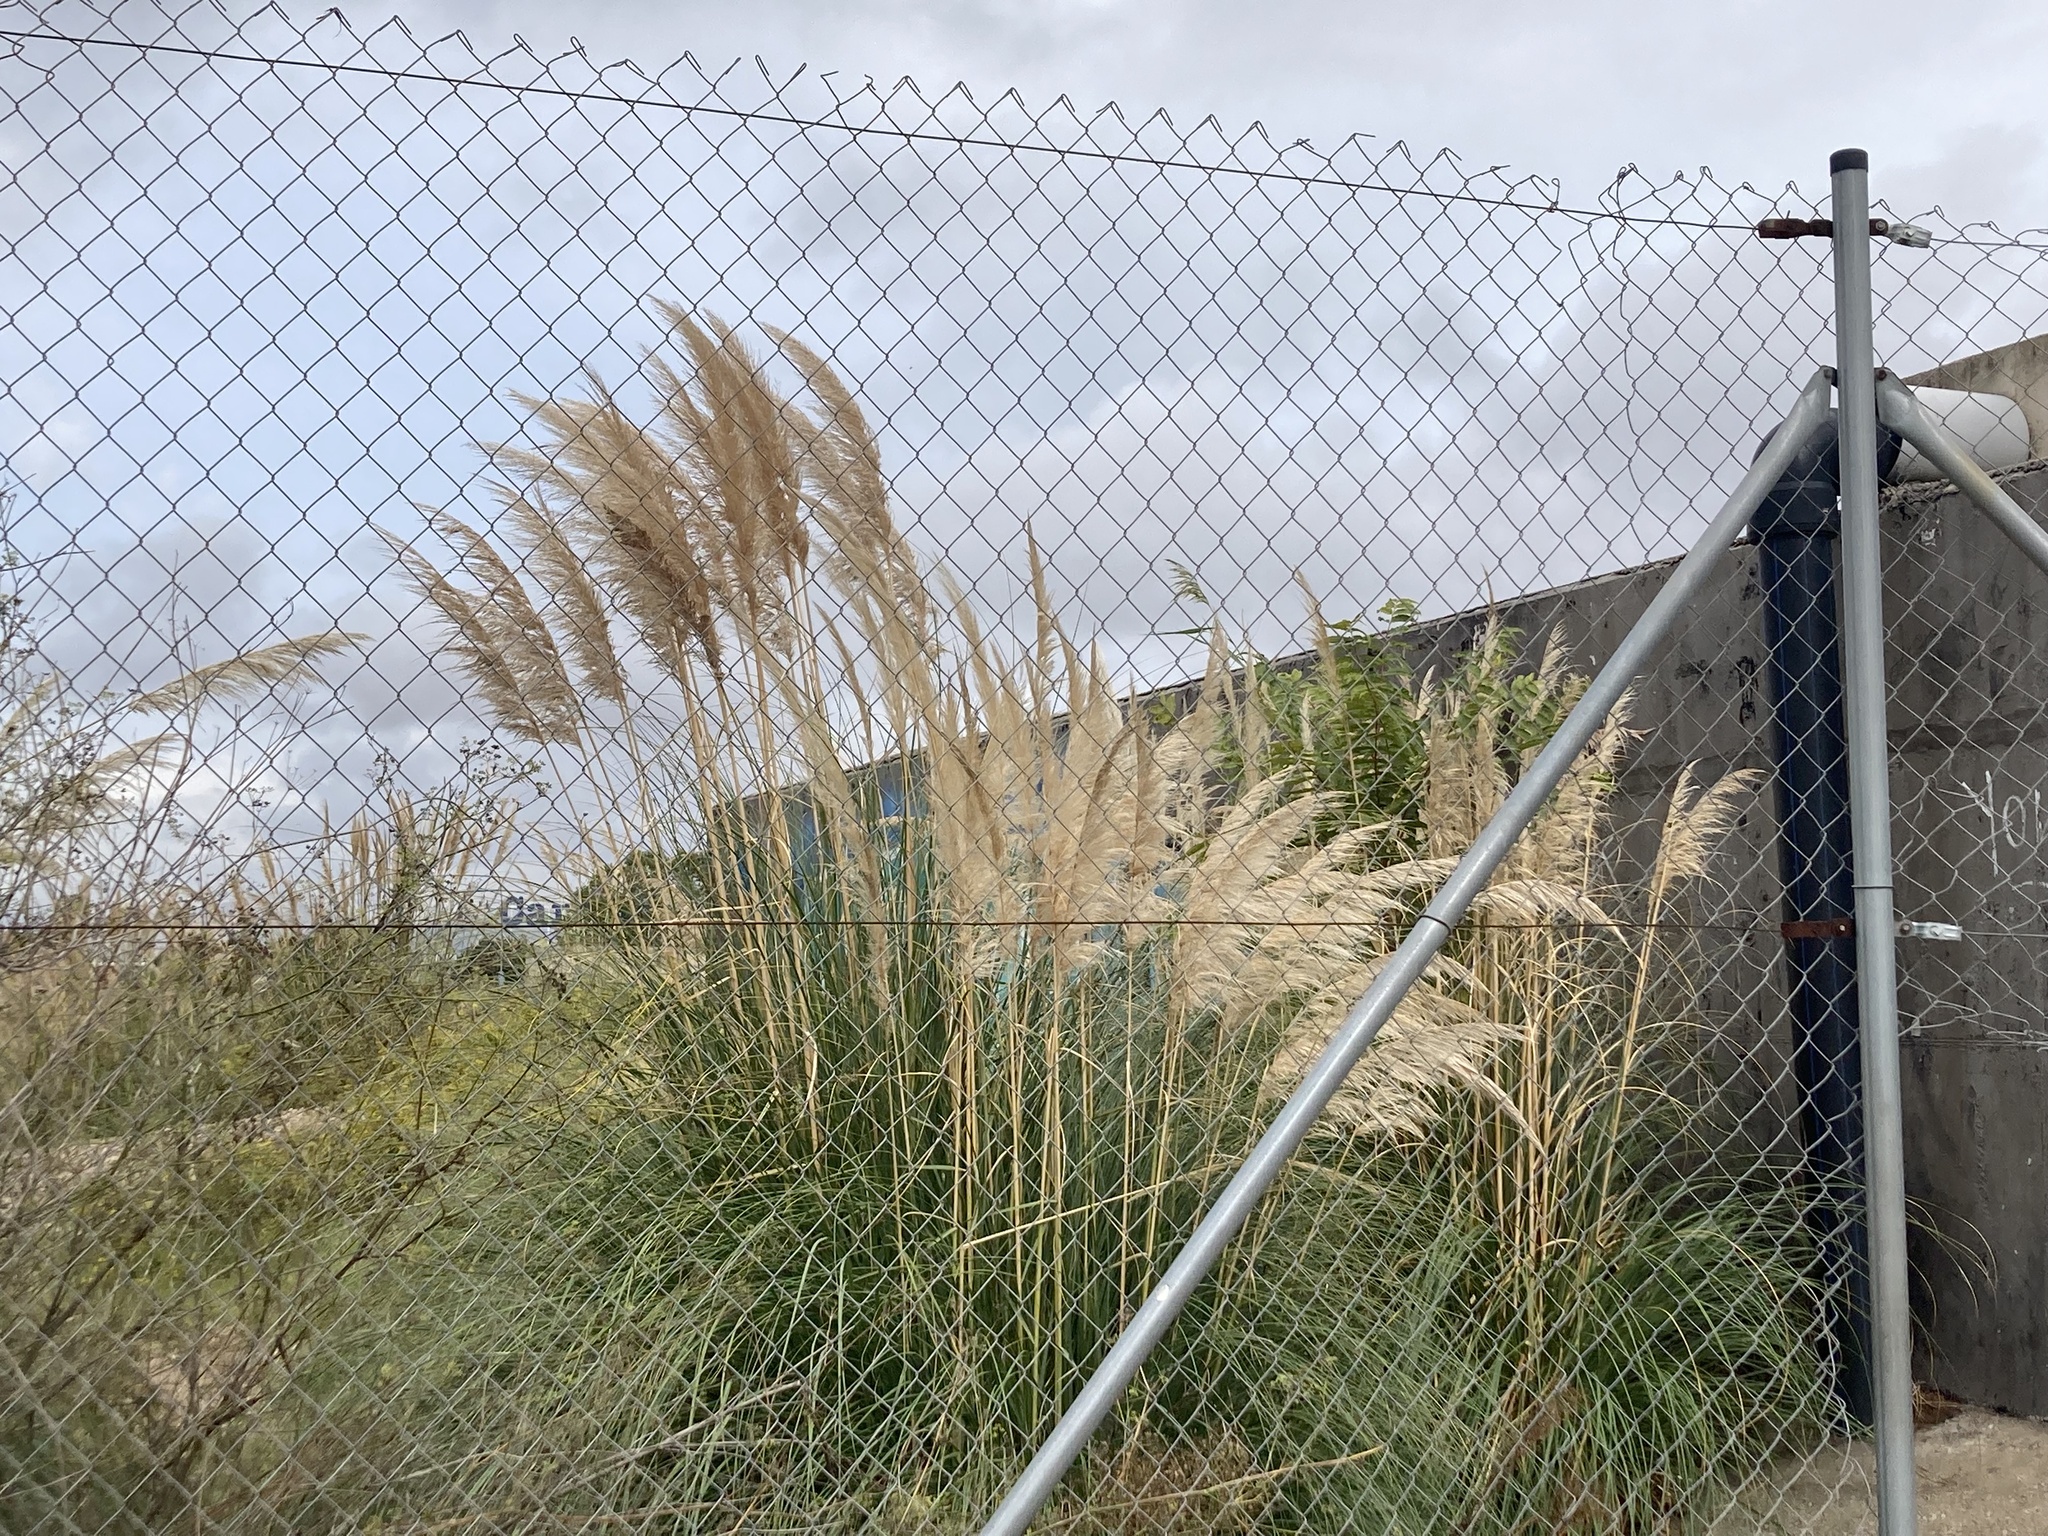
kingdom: Plantae
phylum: Tracheophyta
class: Liliopsida
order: Poales
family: Poaceae
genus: Cortaderia
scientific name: Cortaderia selloana
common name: Uruguayan pampas grass
